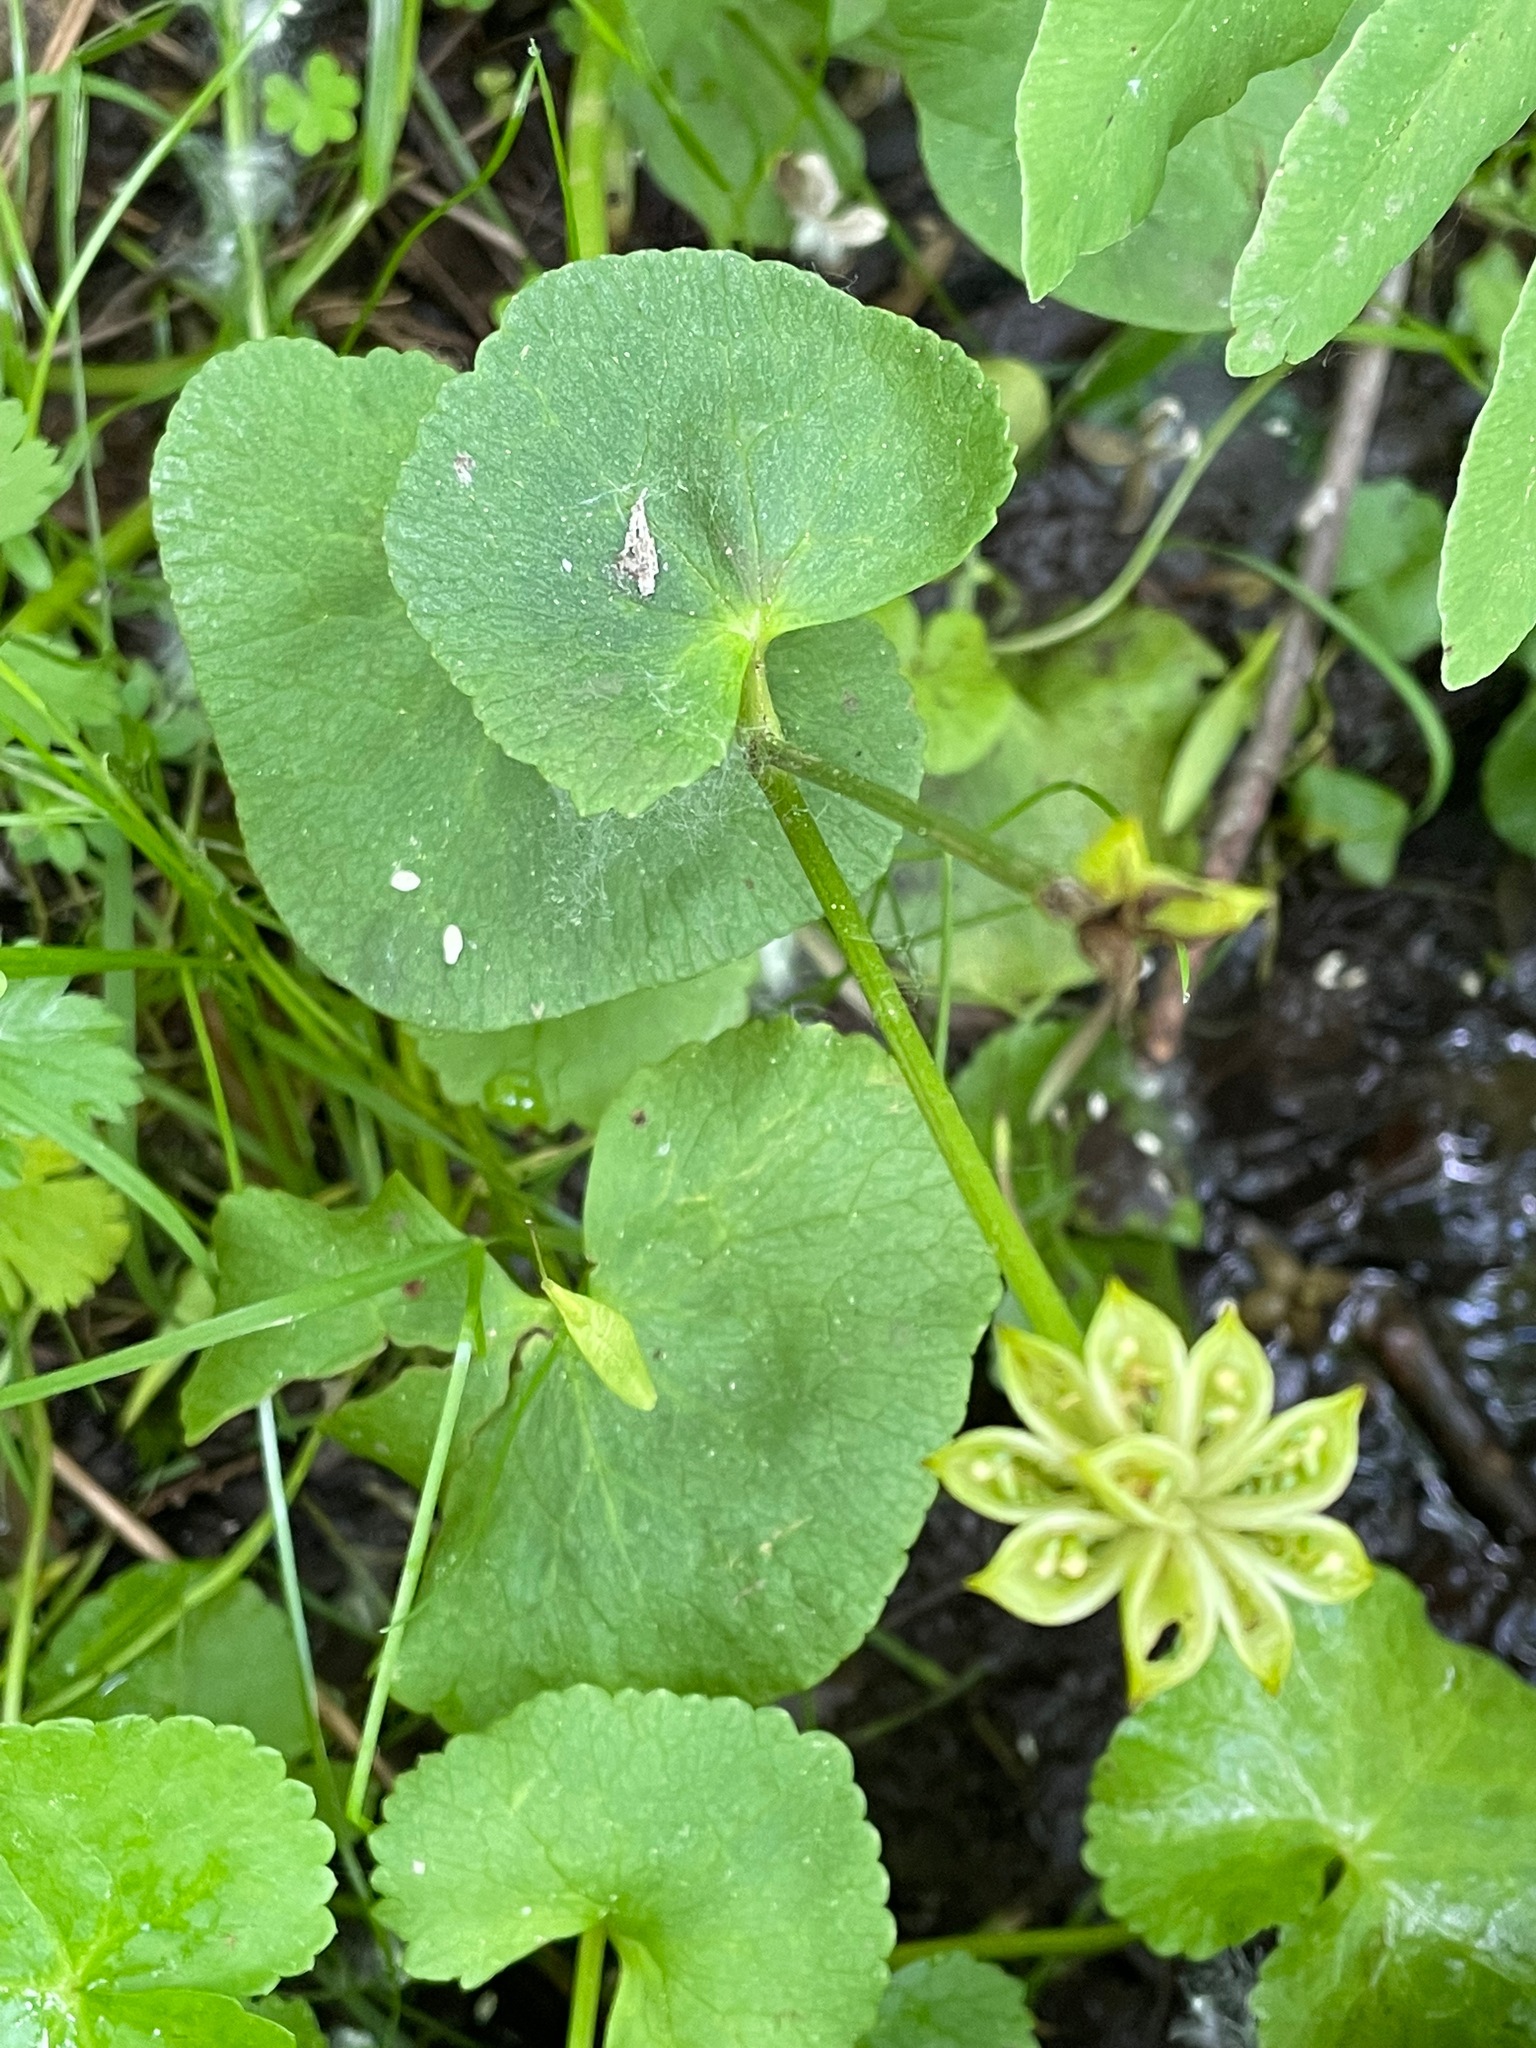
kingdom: Plantae
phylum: Tracheophyta
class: Magnoliopsida
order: Ranunculales
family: Ranunculaceae
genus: Caltha
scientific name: Caltha palustris
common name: Marsh marigold
